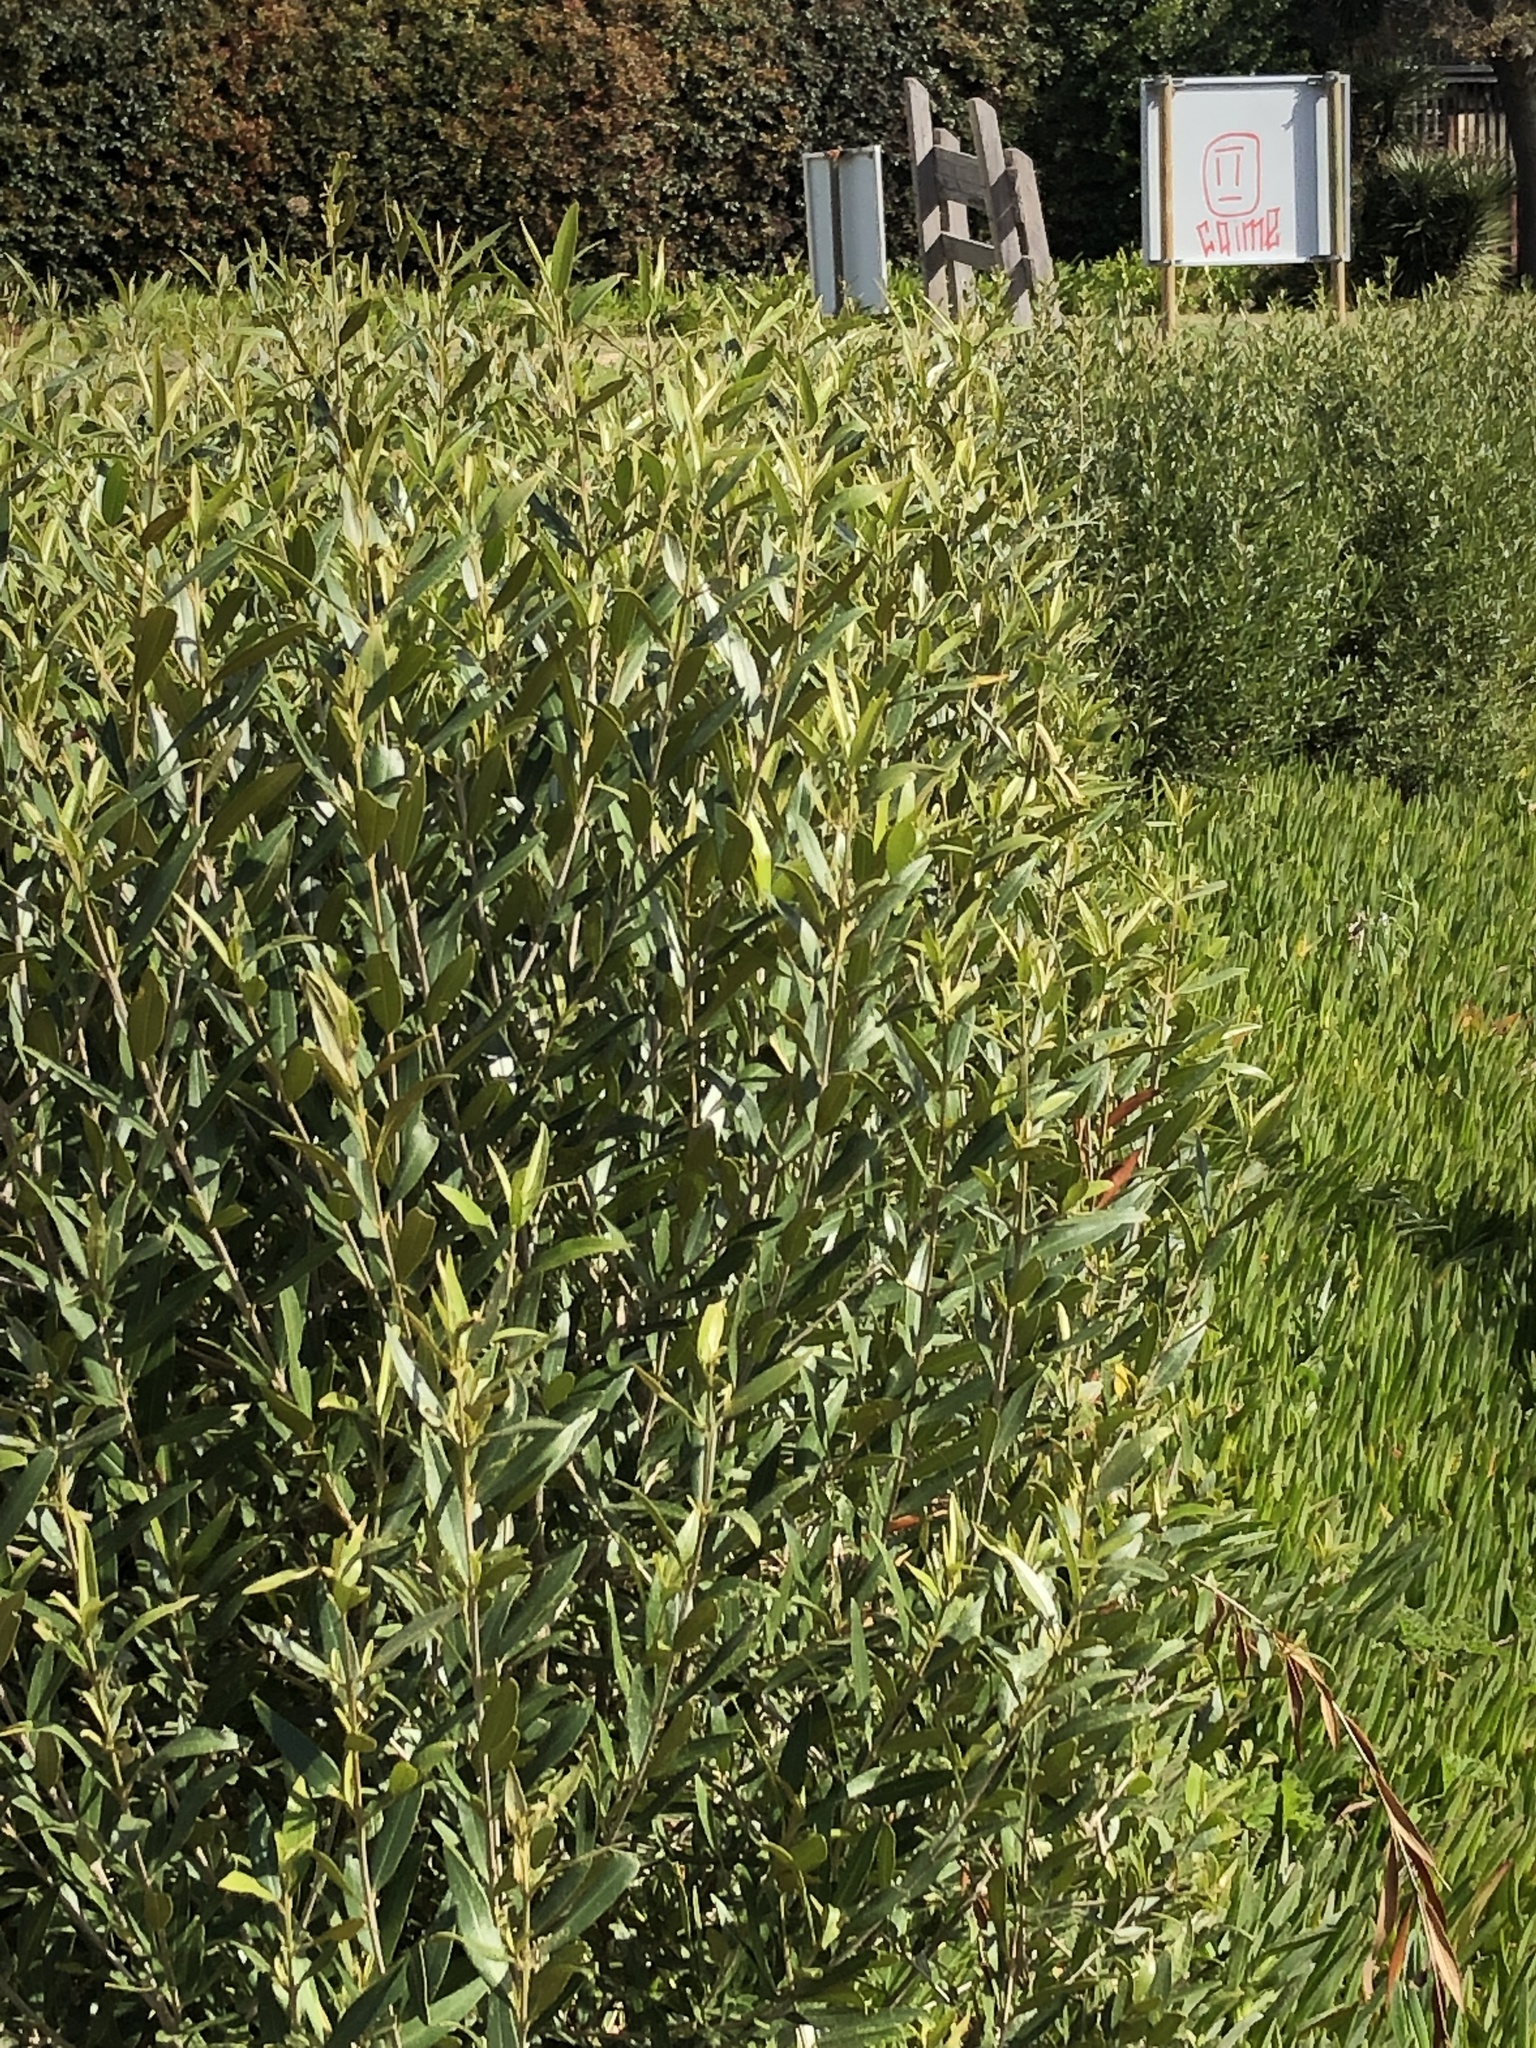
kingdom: Plantae
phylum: Tracheophyta
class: Magnoliopsida
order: Lamiales
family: Oleaceae
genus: Olea
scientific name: Olea europaea
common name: Olive
